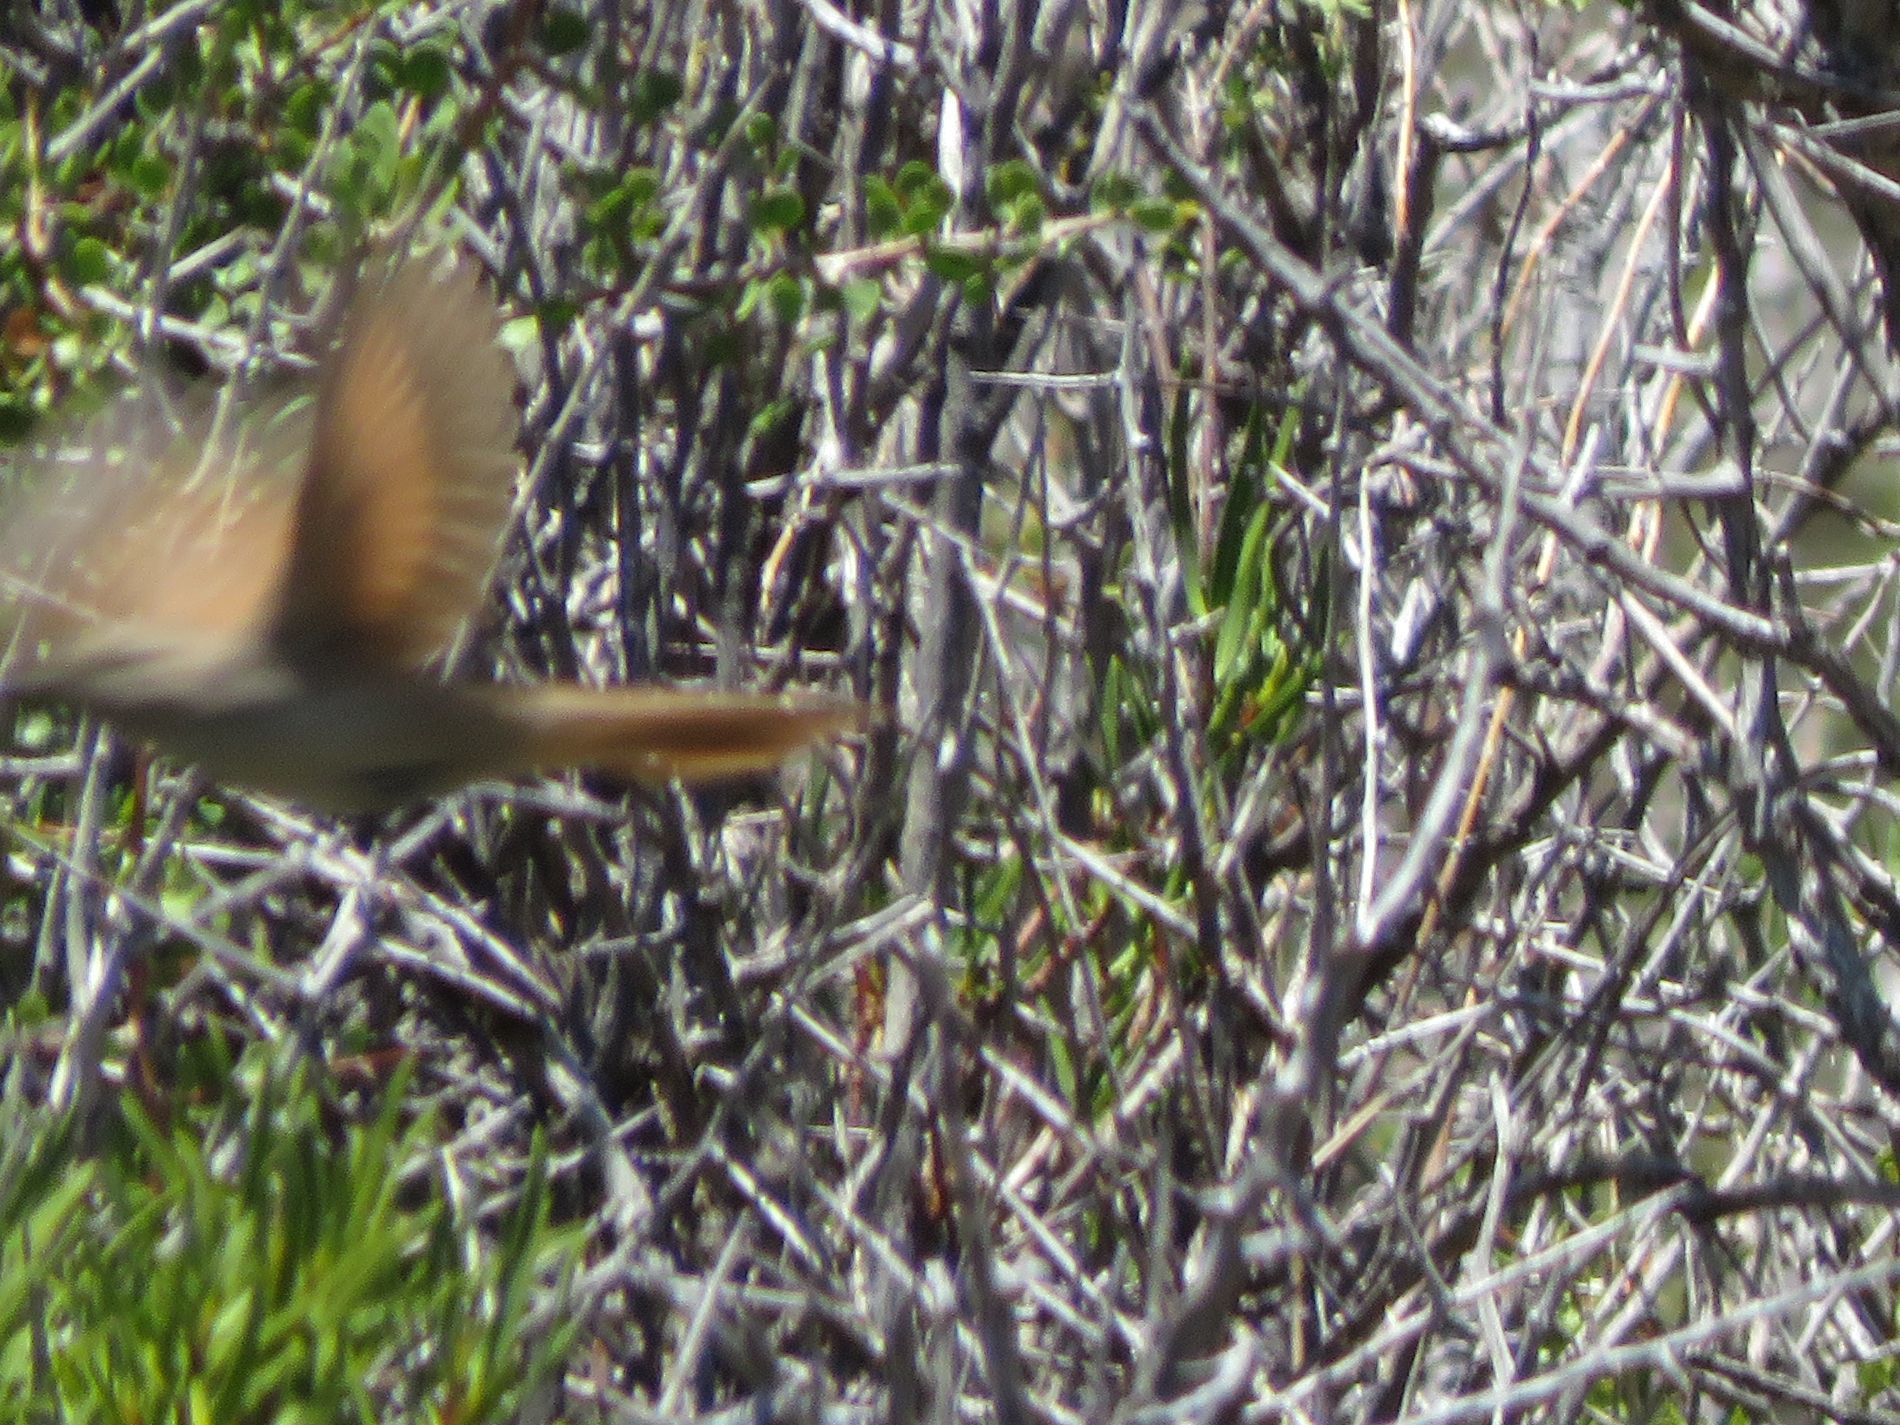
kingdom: Animalia
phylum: Chordata
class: Aves
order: Passeriformes
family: Furnariidae
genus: Asthenes
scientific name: Asthenes pyrrholeuca
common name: Sharp-billed canastero
